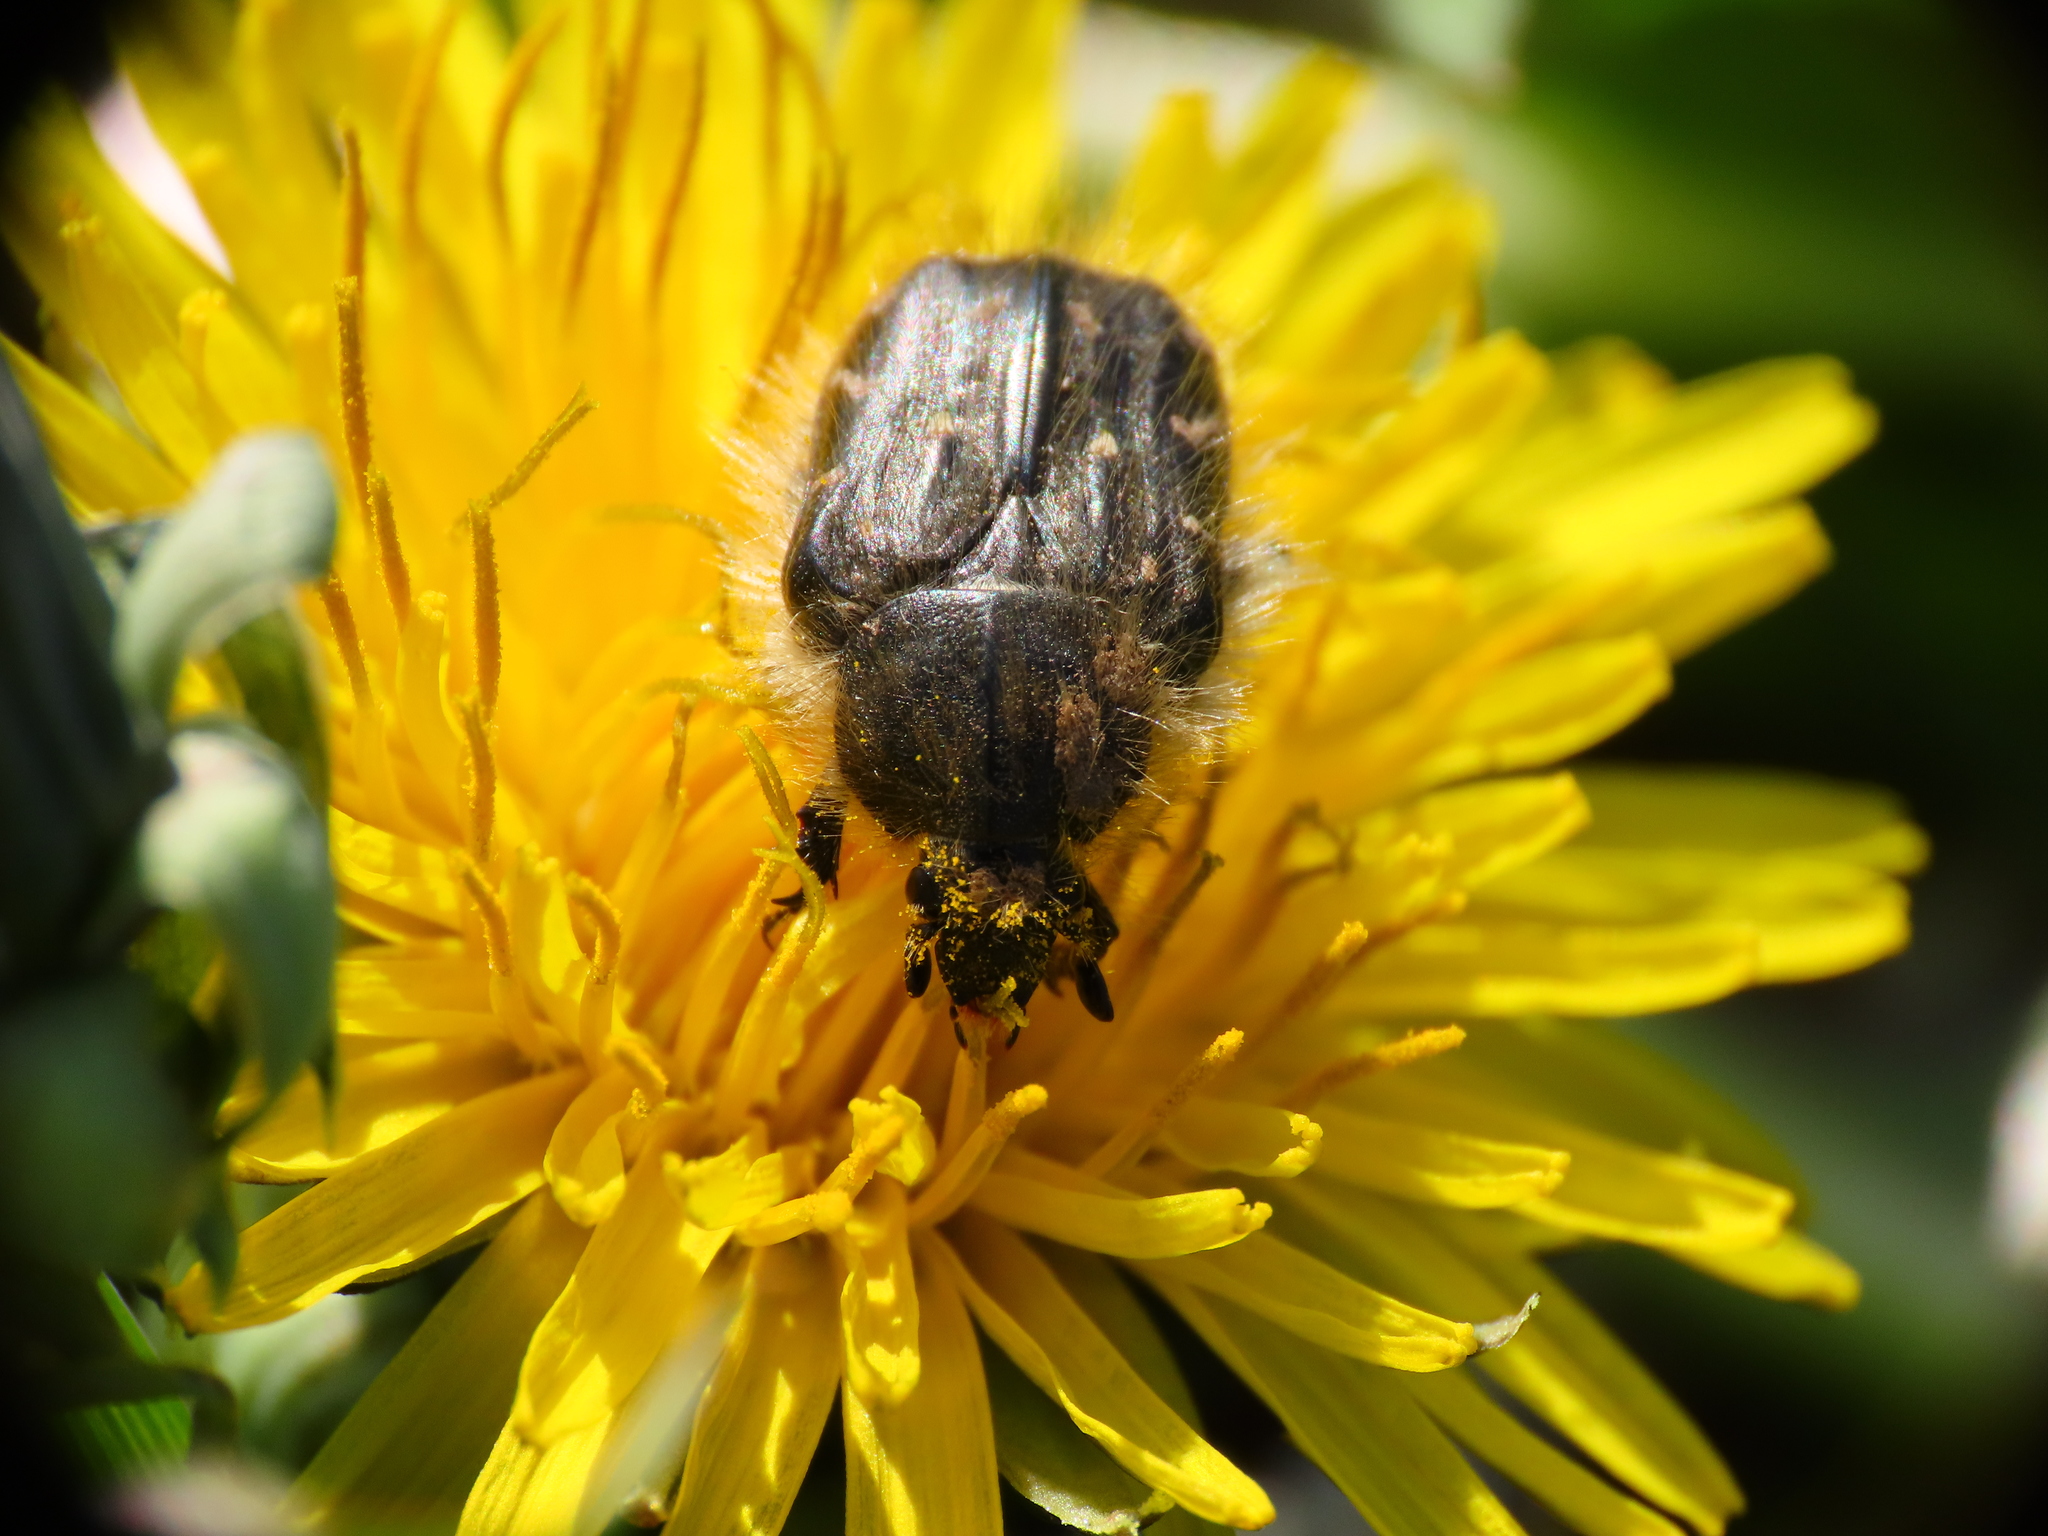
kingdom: Animalia
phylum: Arthropoda
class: Insecta
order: Coleoptera
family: Scarabaeidae
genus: Tropinota
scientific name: Tropinota hirta
